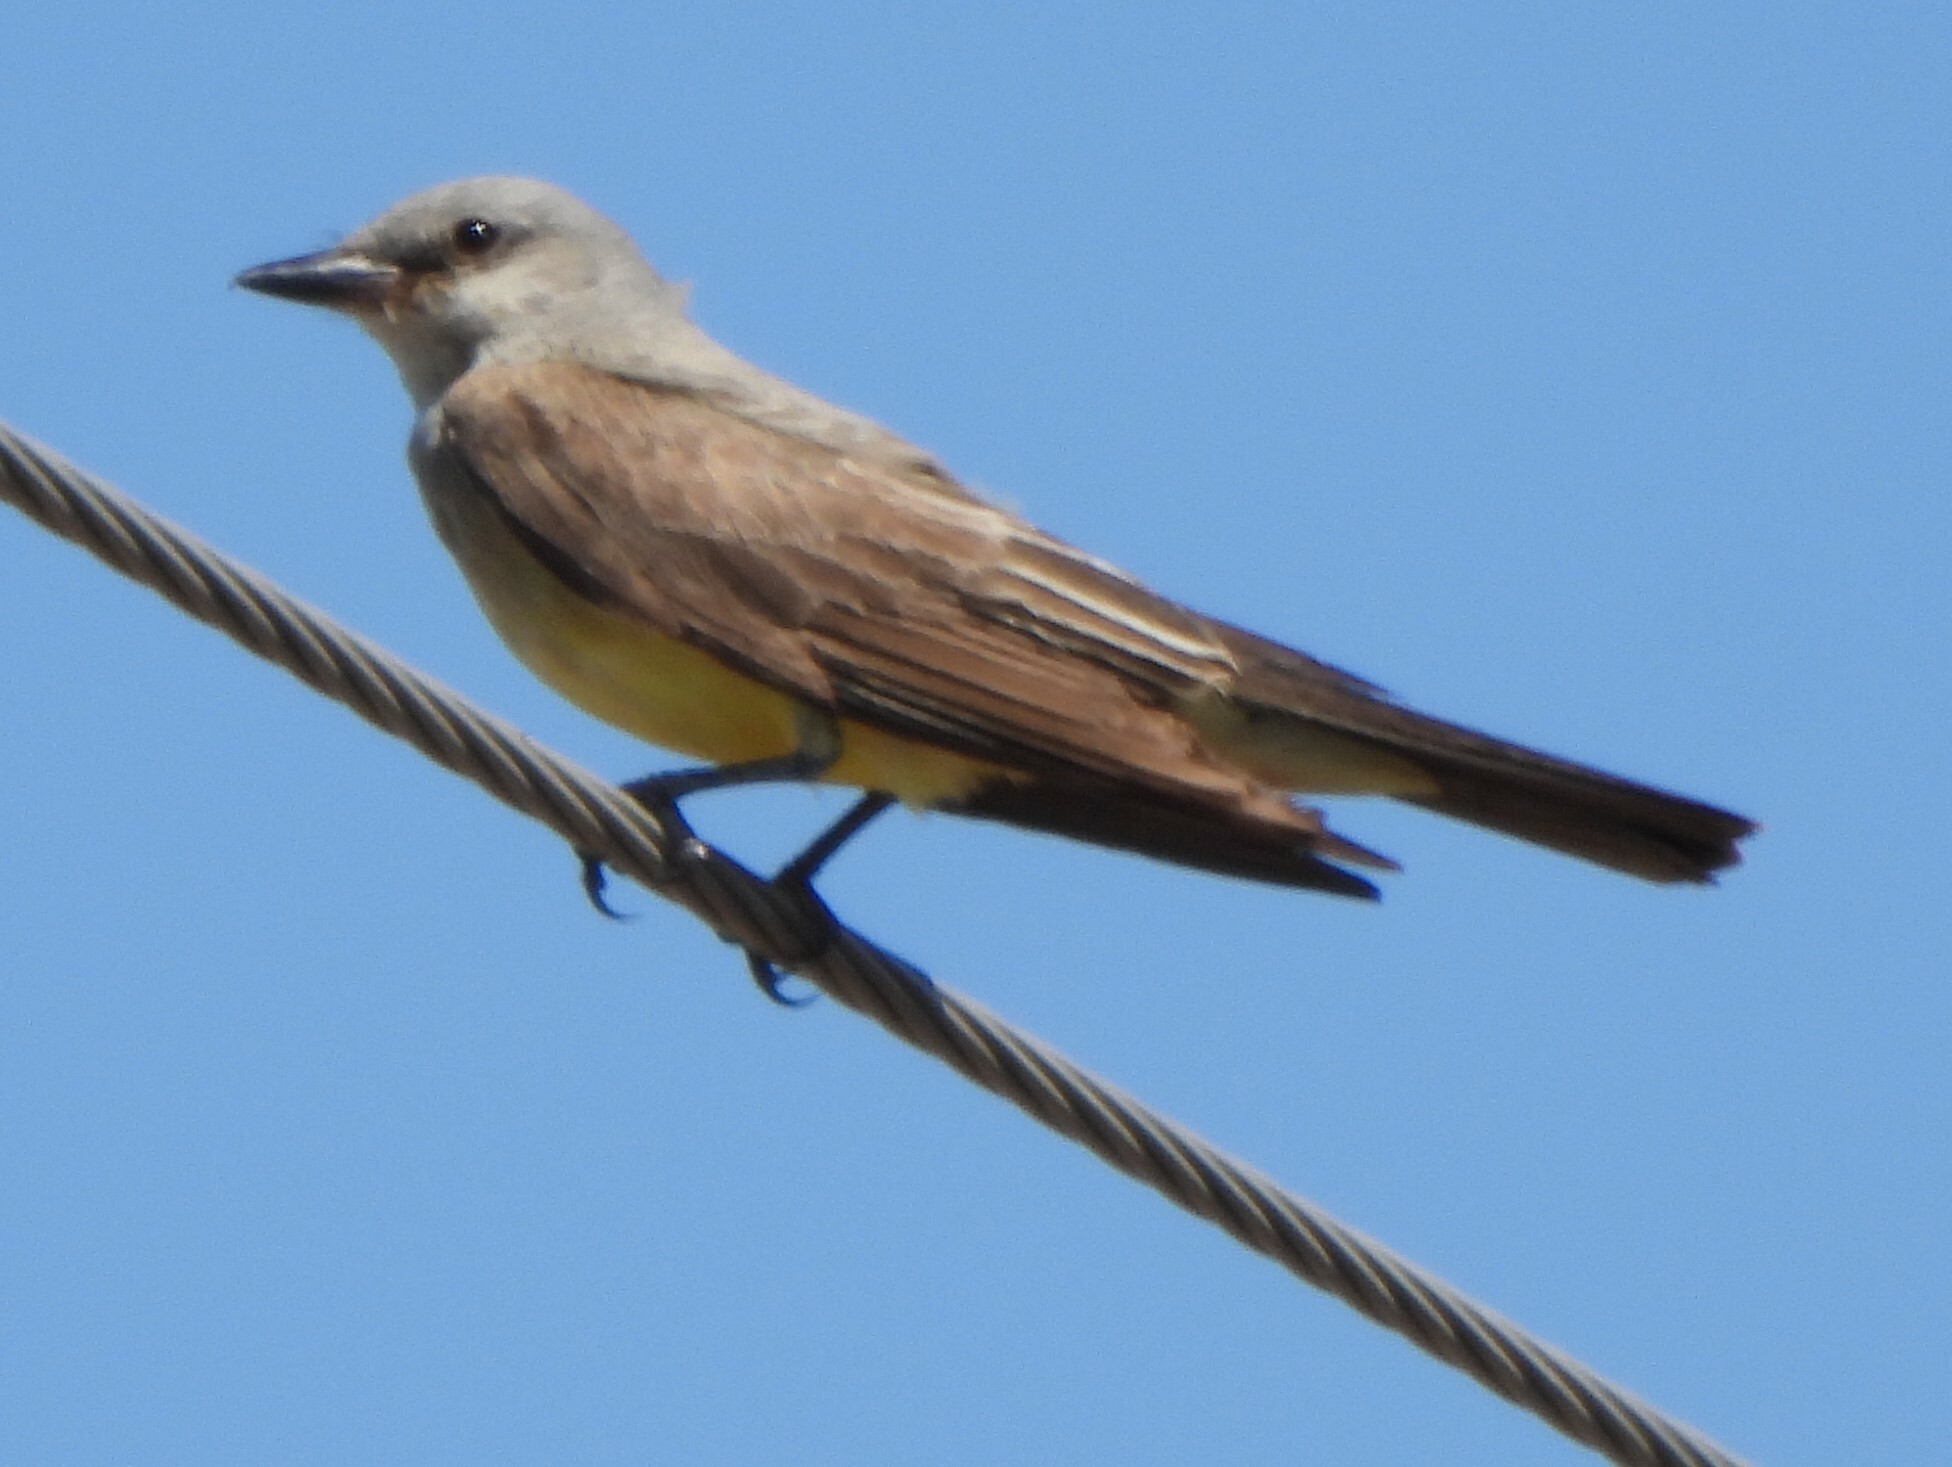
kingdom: Animalia
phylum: Chordata
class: Aves
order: Passeriformes
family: Tyrannidae
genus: Tyrannus
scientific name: Tyrannus verticalis
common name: Western kingbird
